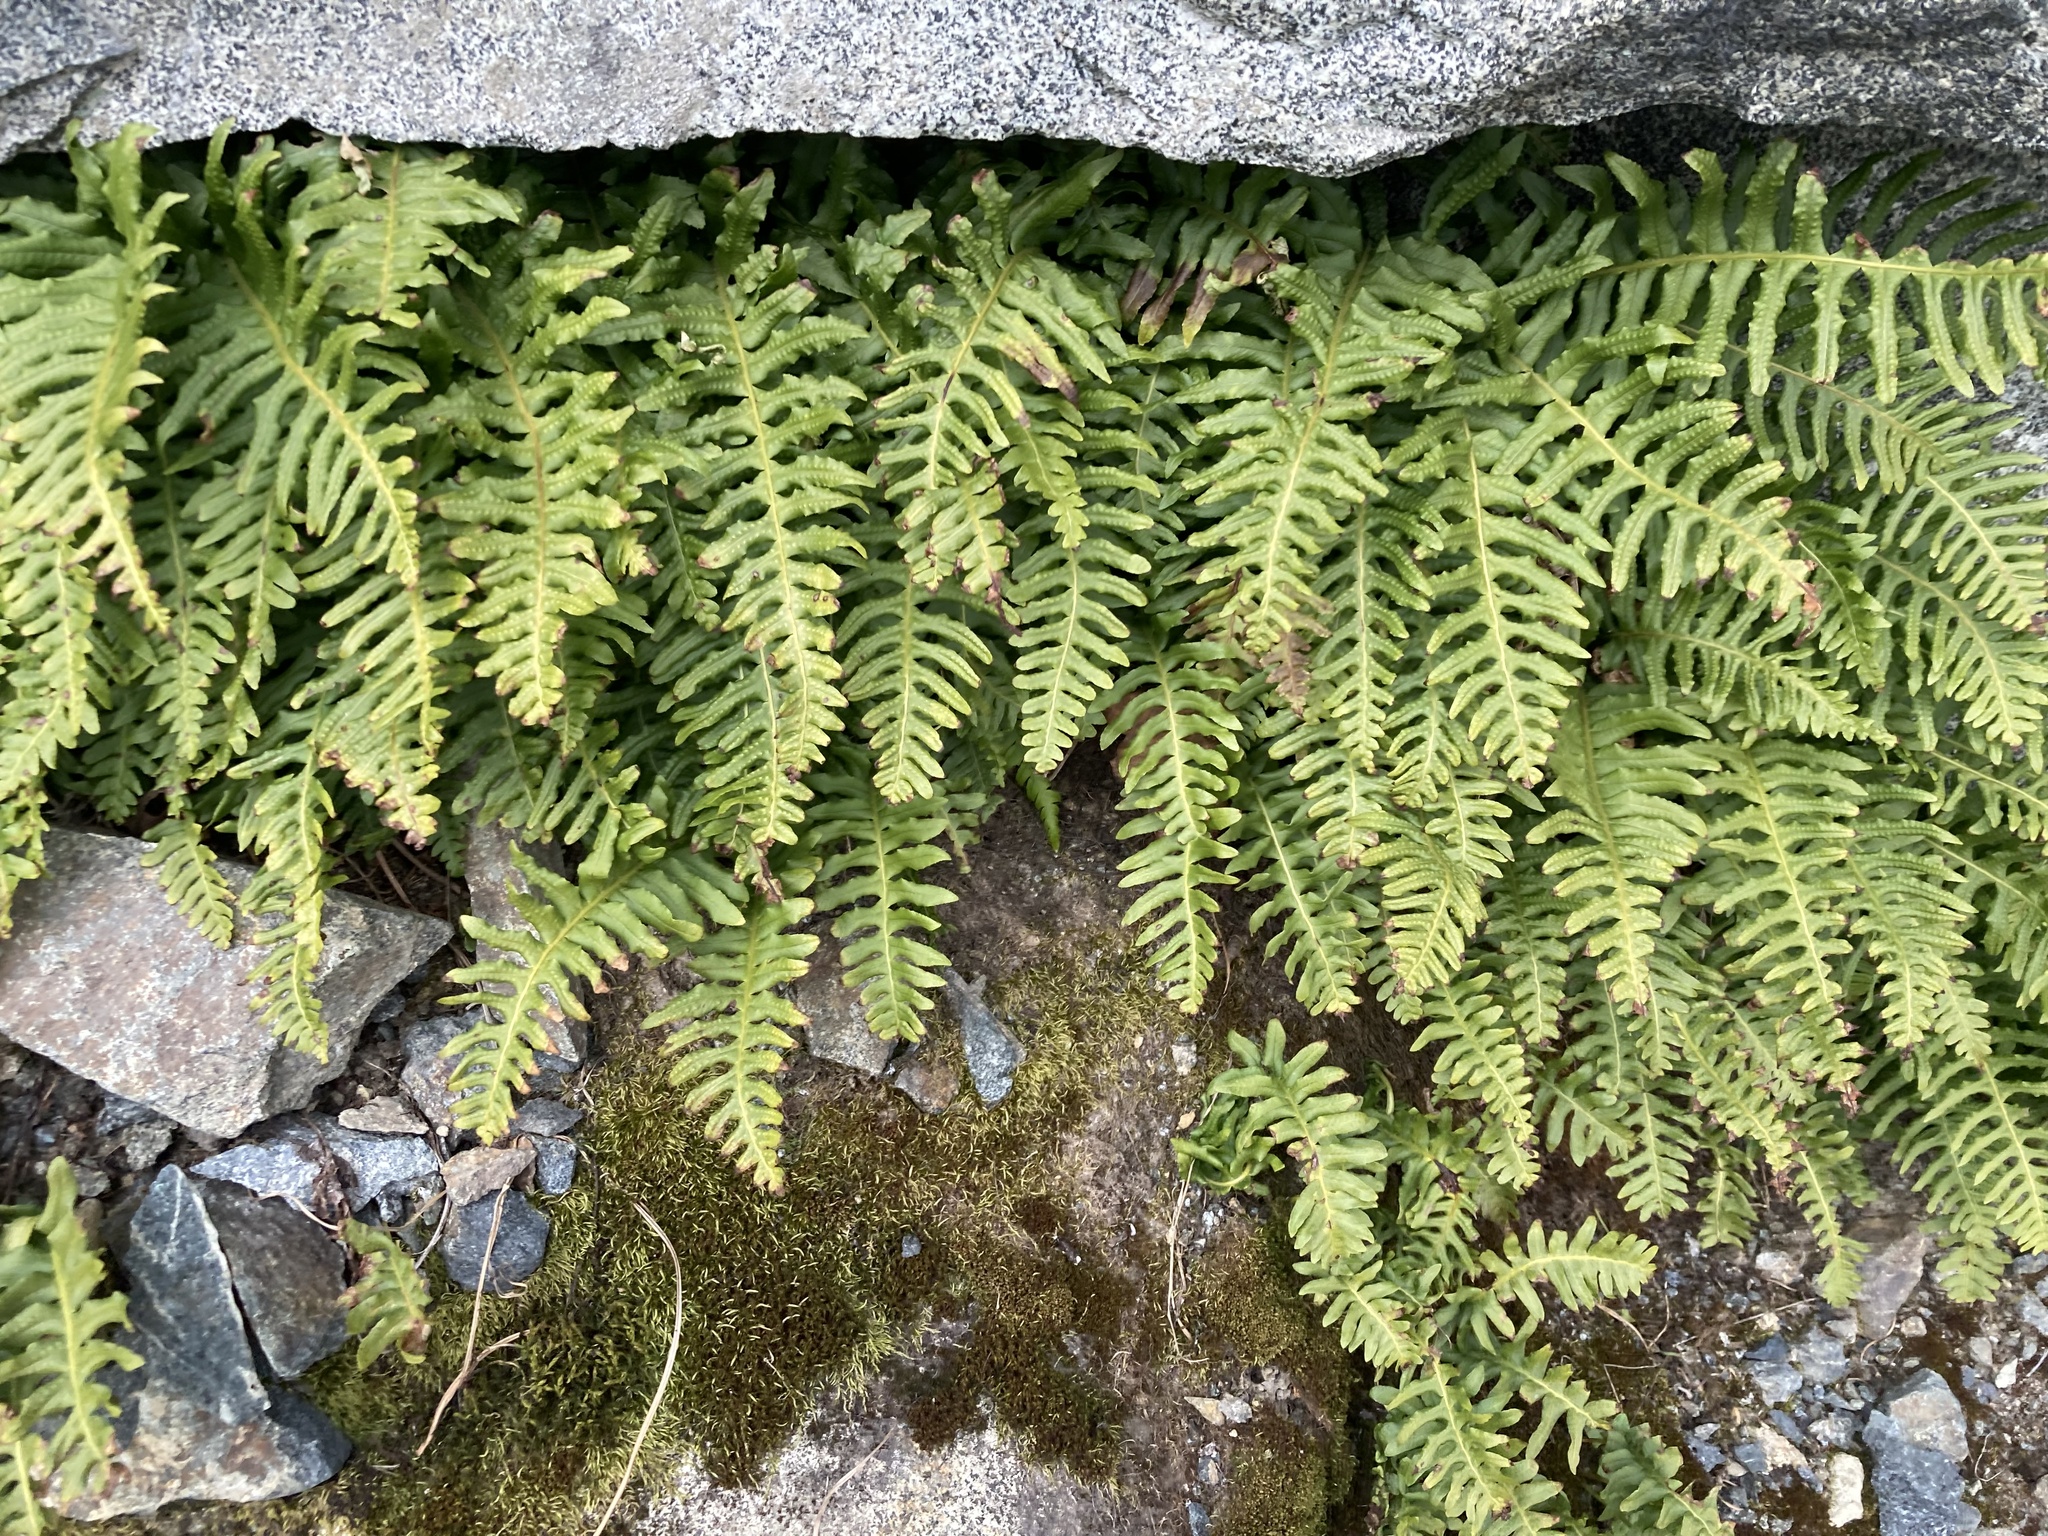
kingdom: Plantae
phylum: Tracheophyta
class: Polypodiopsida
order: Polypodiales
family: Polypodiaceae
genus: Polypodium
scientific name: Polypodium glycyrrhiza
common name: Licorice fern
